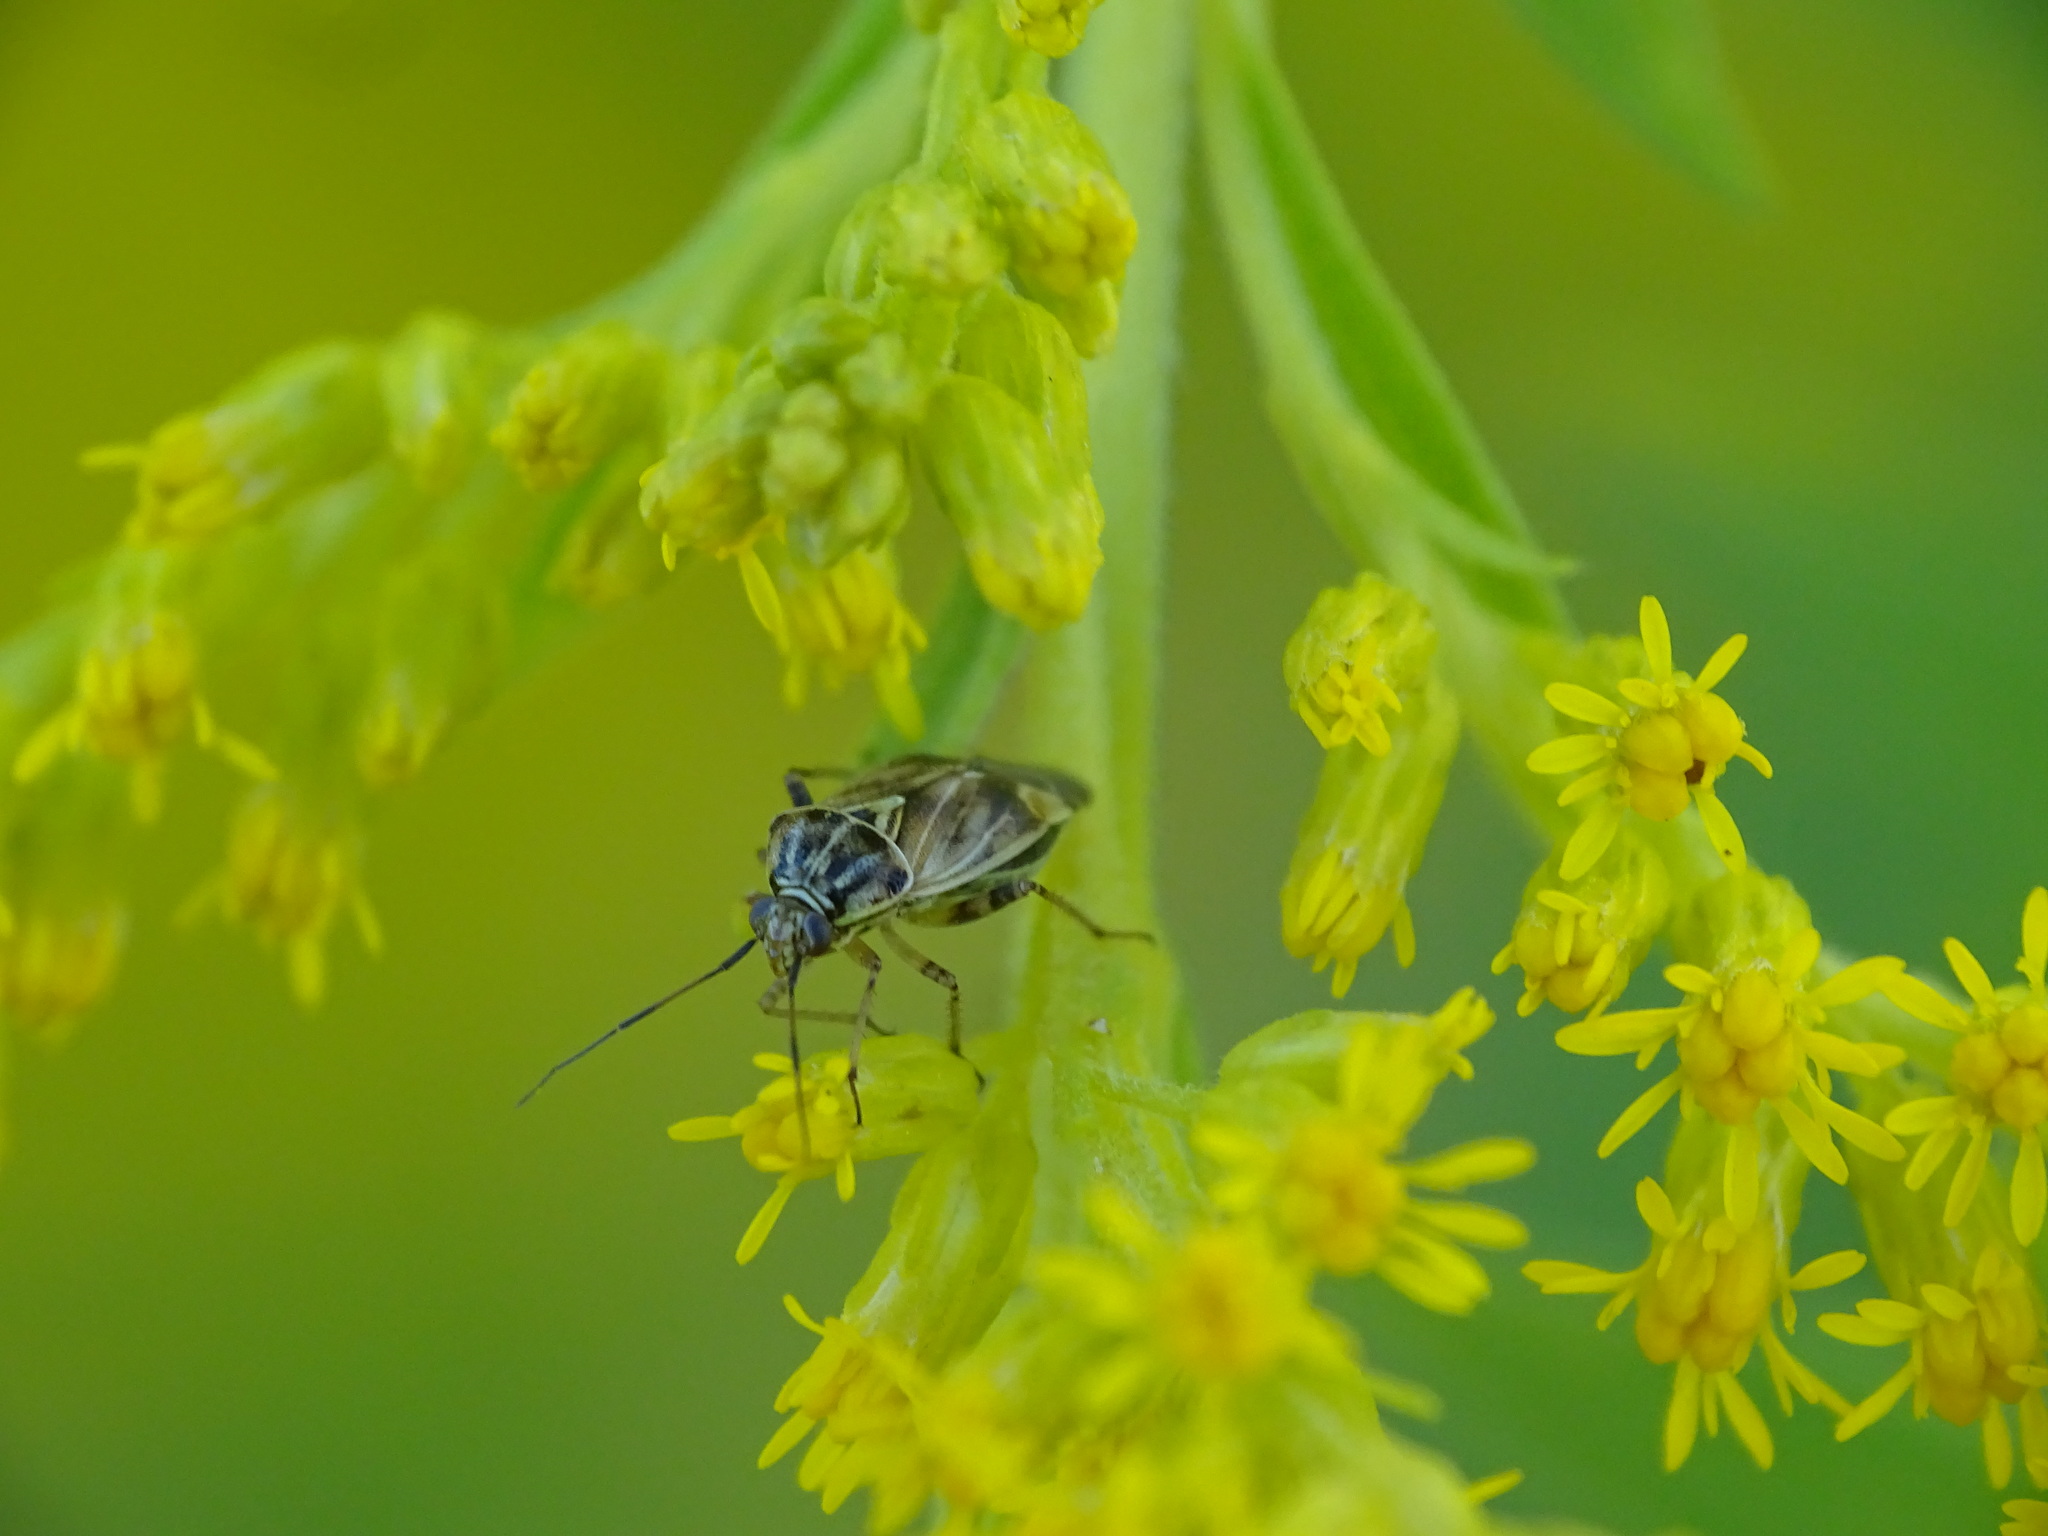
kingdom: Animalia
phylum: Arthropoda
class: Insecta
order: Hemiptera
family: Miridae
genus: Lygus
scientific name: Lygus lineolaris
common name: North american tarnished plant bug
